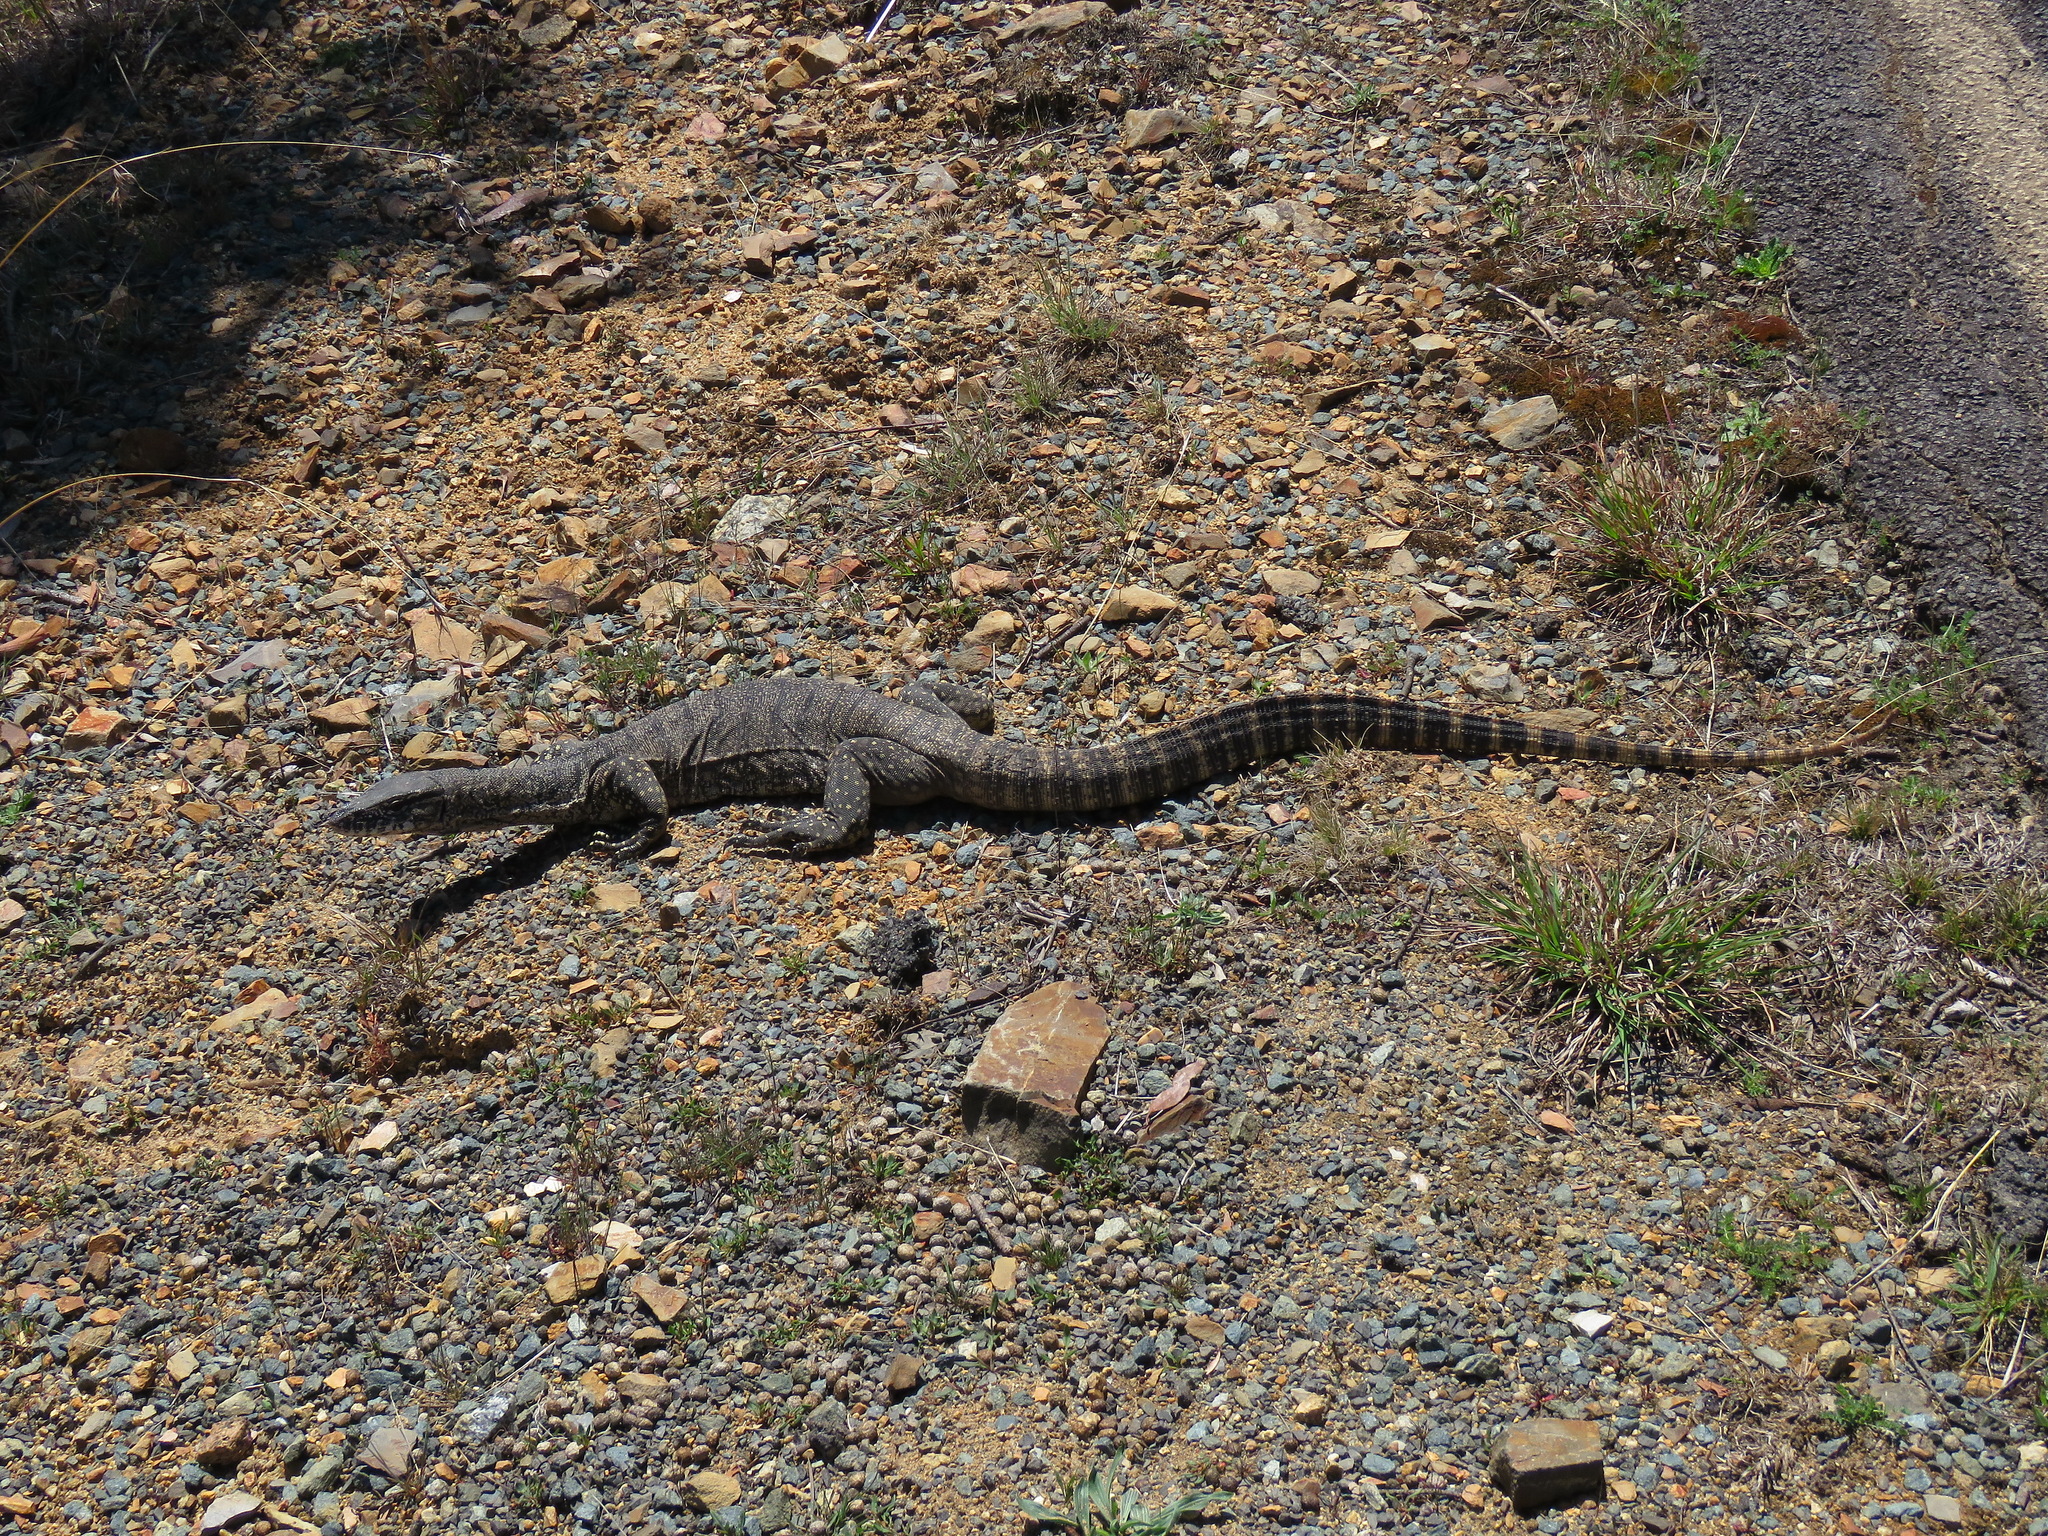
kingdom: Animalia
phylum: Chordata
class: Squamata
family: Varanidae
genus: Varanus
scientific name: Varanus rosenbergi
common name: Heath monitor
